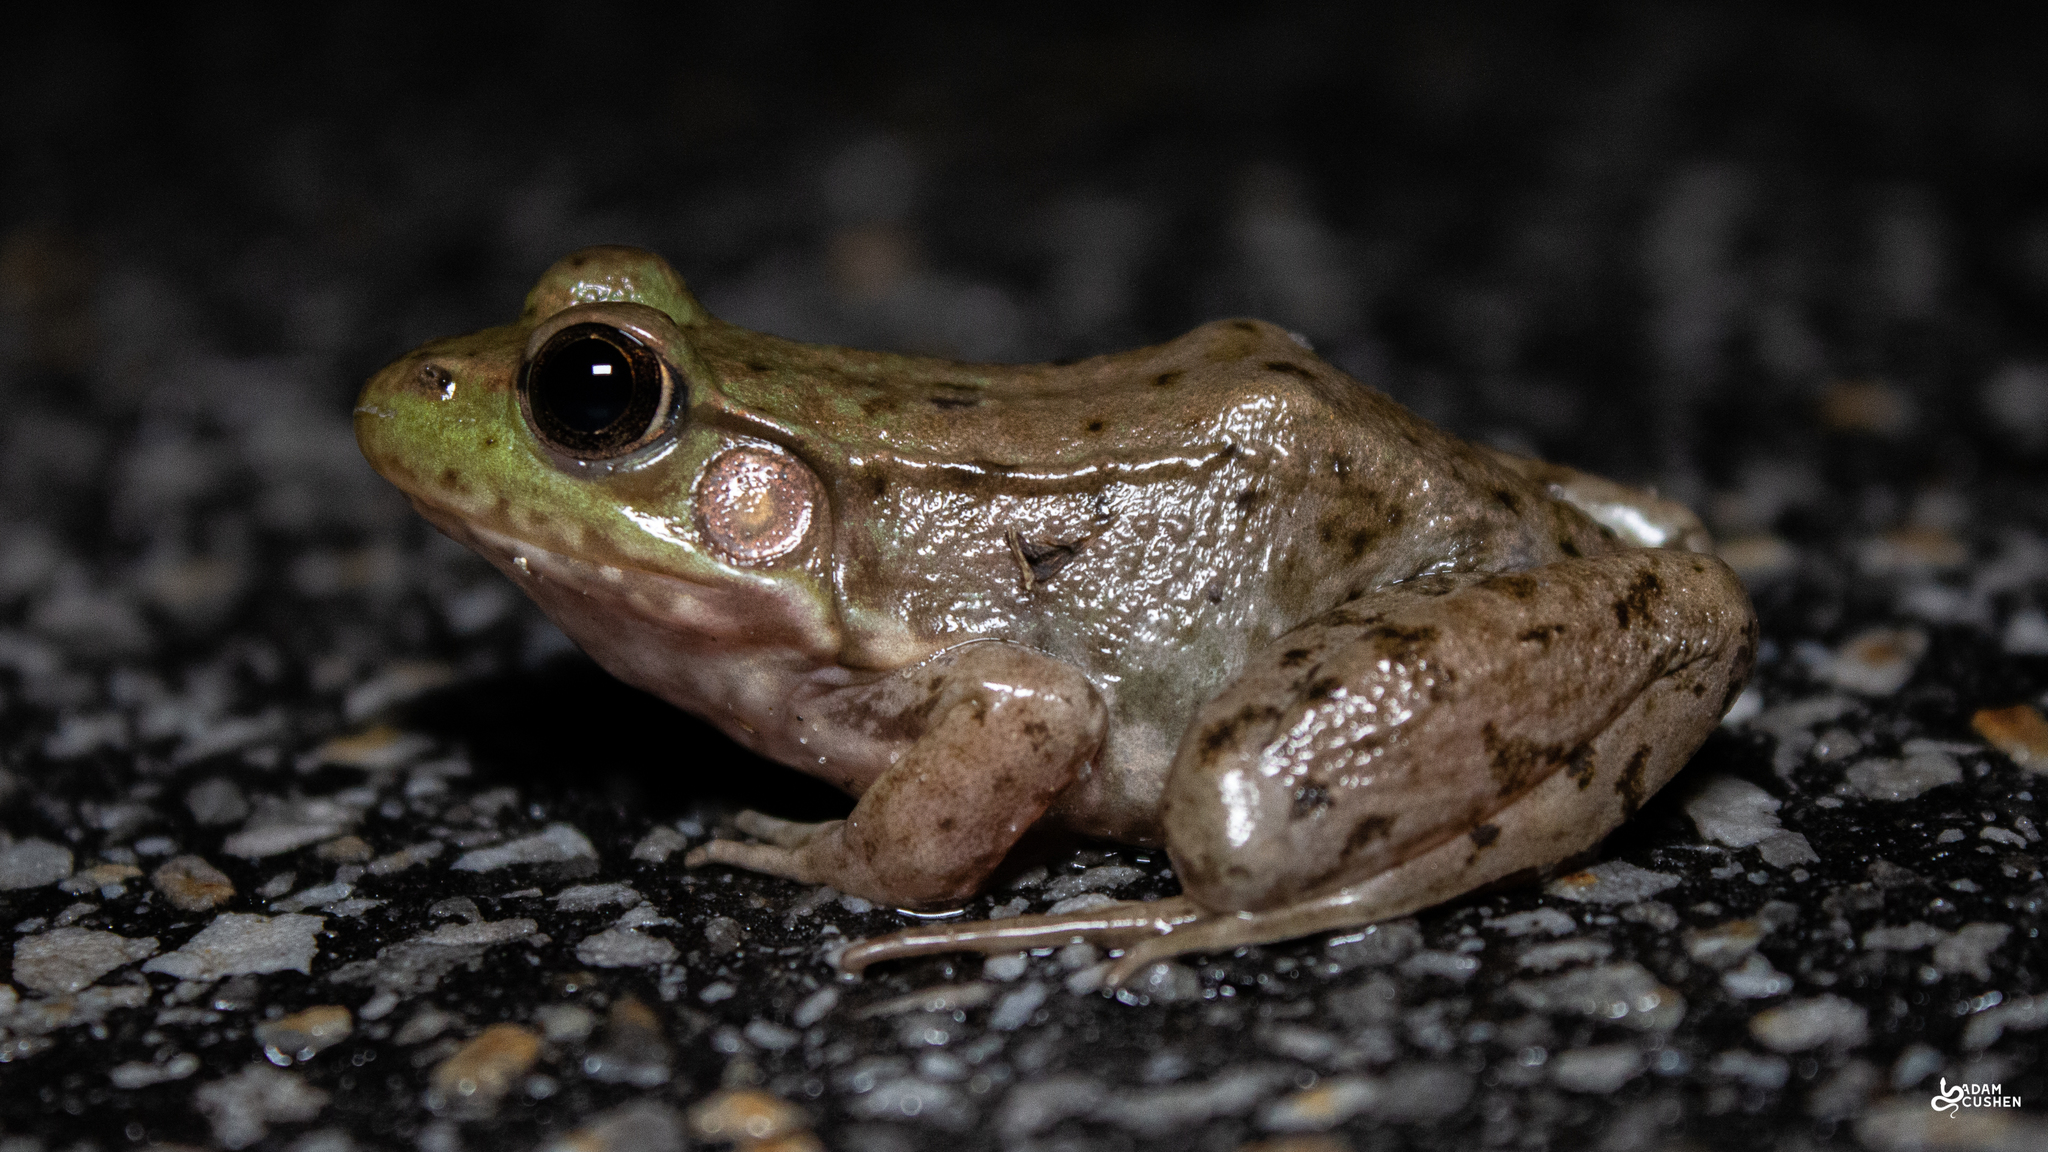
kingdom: Animalia
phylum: Chordata
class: Amphibia
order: Anura
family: Ranidae
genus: Lithobates
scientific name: Lithobates clamitans
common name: Green frog
